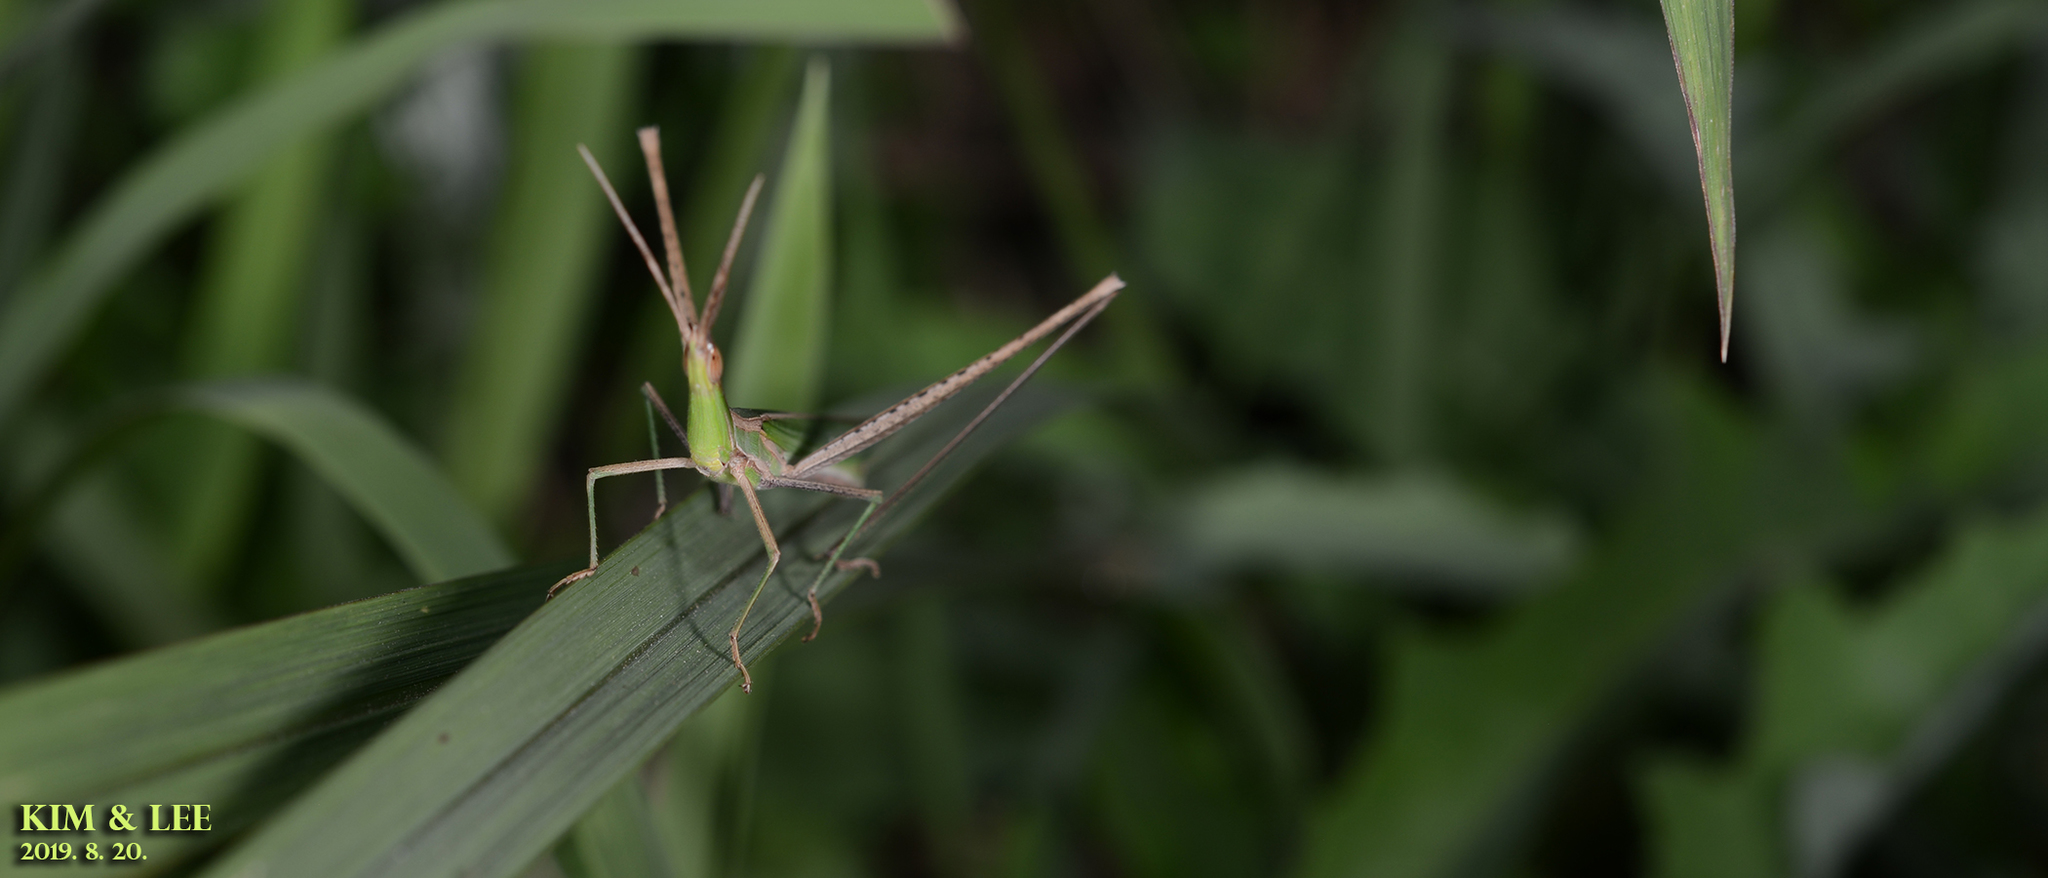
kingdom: Animalia
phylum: Arthropoda
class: Insecta
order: Orthoptera
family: Acrididae
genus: Acrida
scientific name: Acrida cinerea
